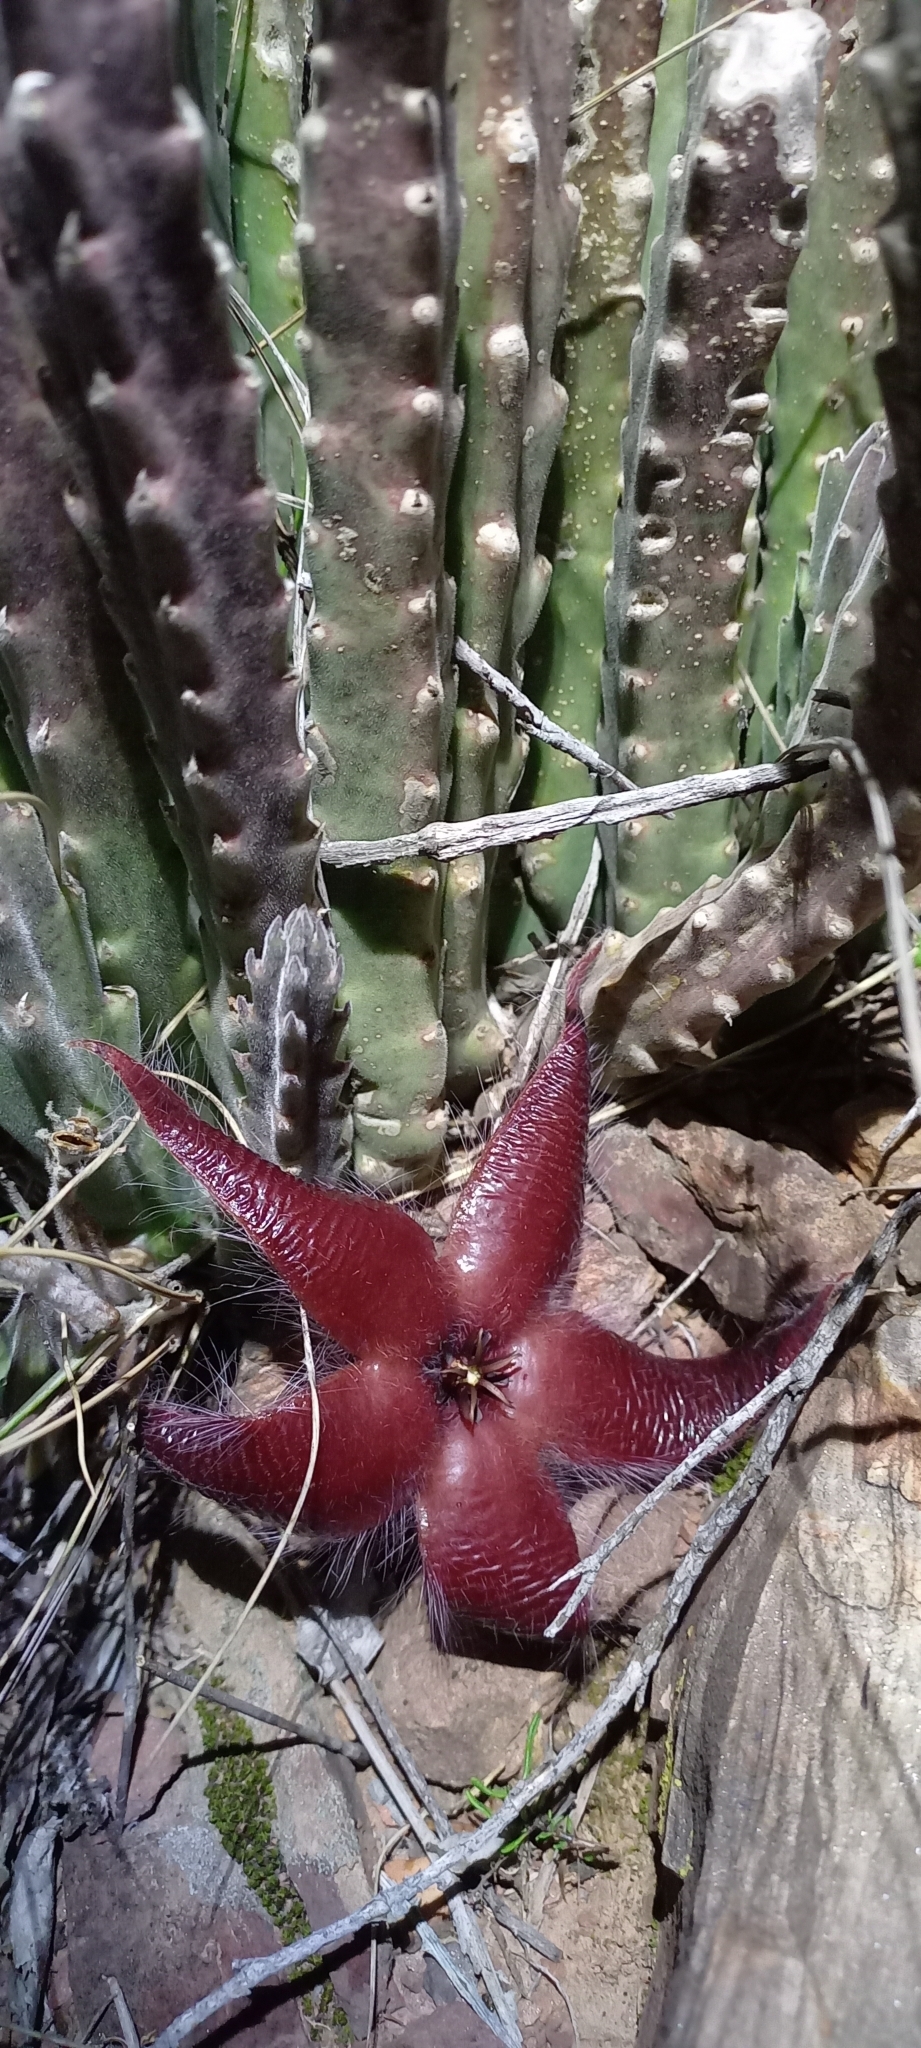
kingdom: Plantae
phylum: Tracheophyta
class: Magnoliopsida
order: Gentianales
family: Apocynaceae
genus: Ceropegia
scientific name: Ceropegia pulvinata
